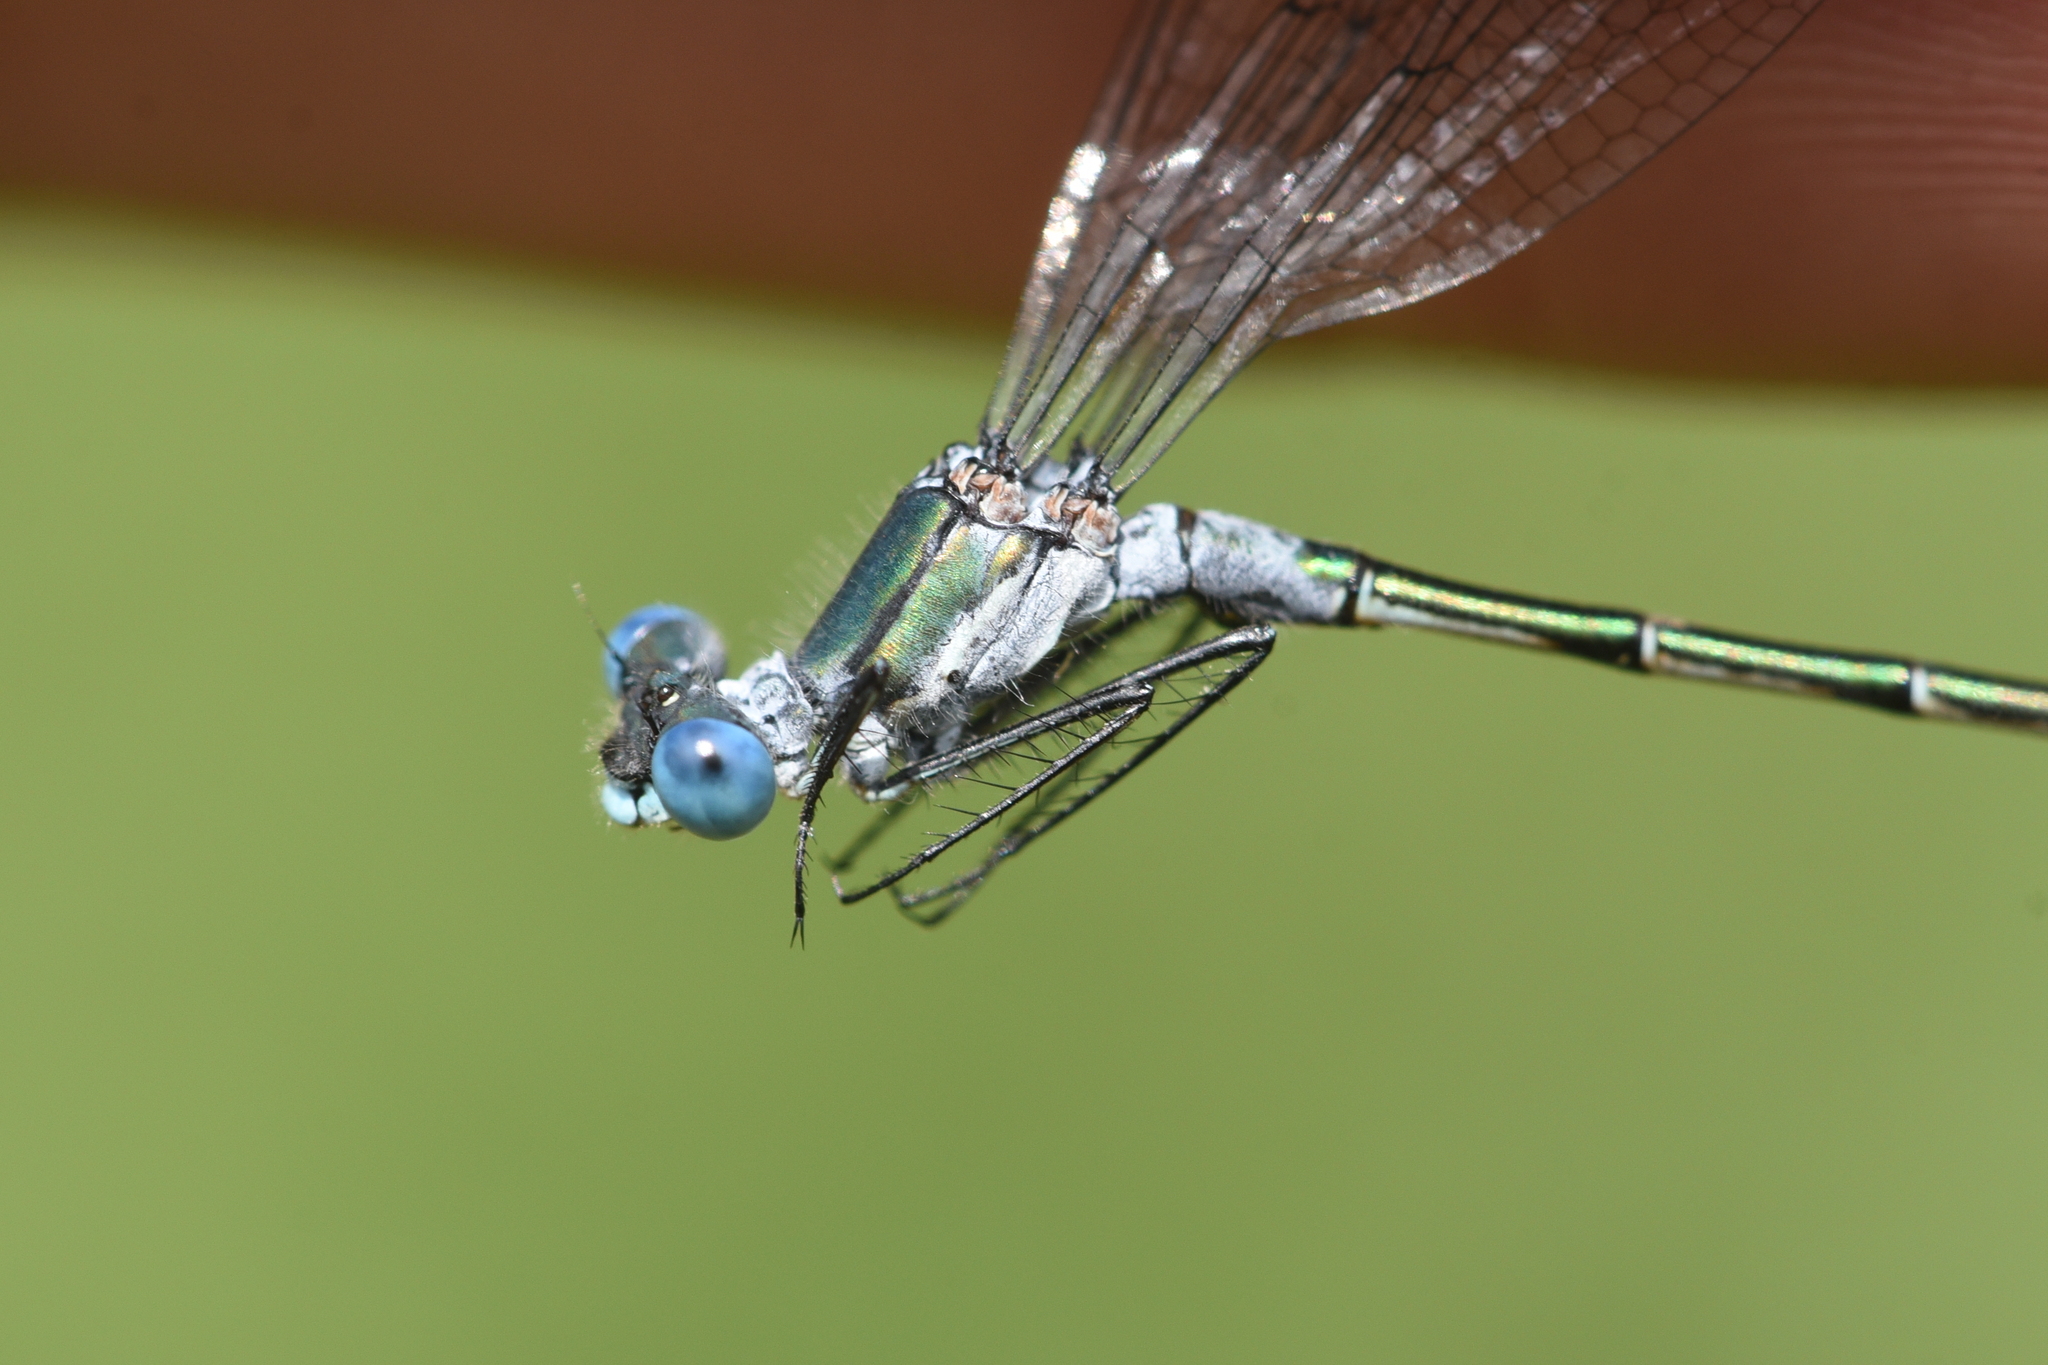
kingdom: Animalia
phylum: Arthropoda
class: Insecta
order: Odonata
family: Lestidae
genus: Lestes
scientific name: Lestes dryas
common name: Scarce emerald damselfly
